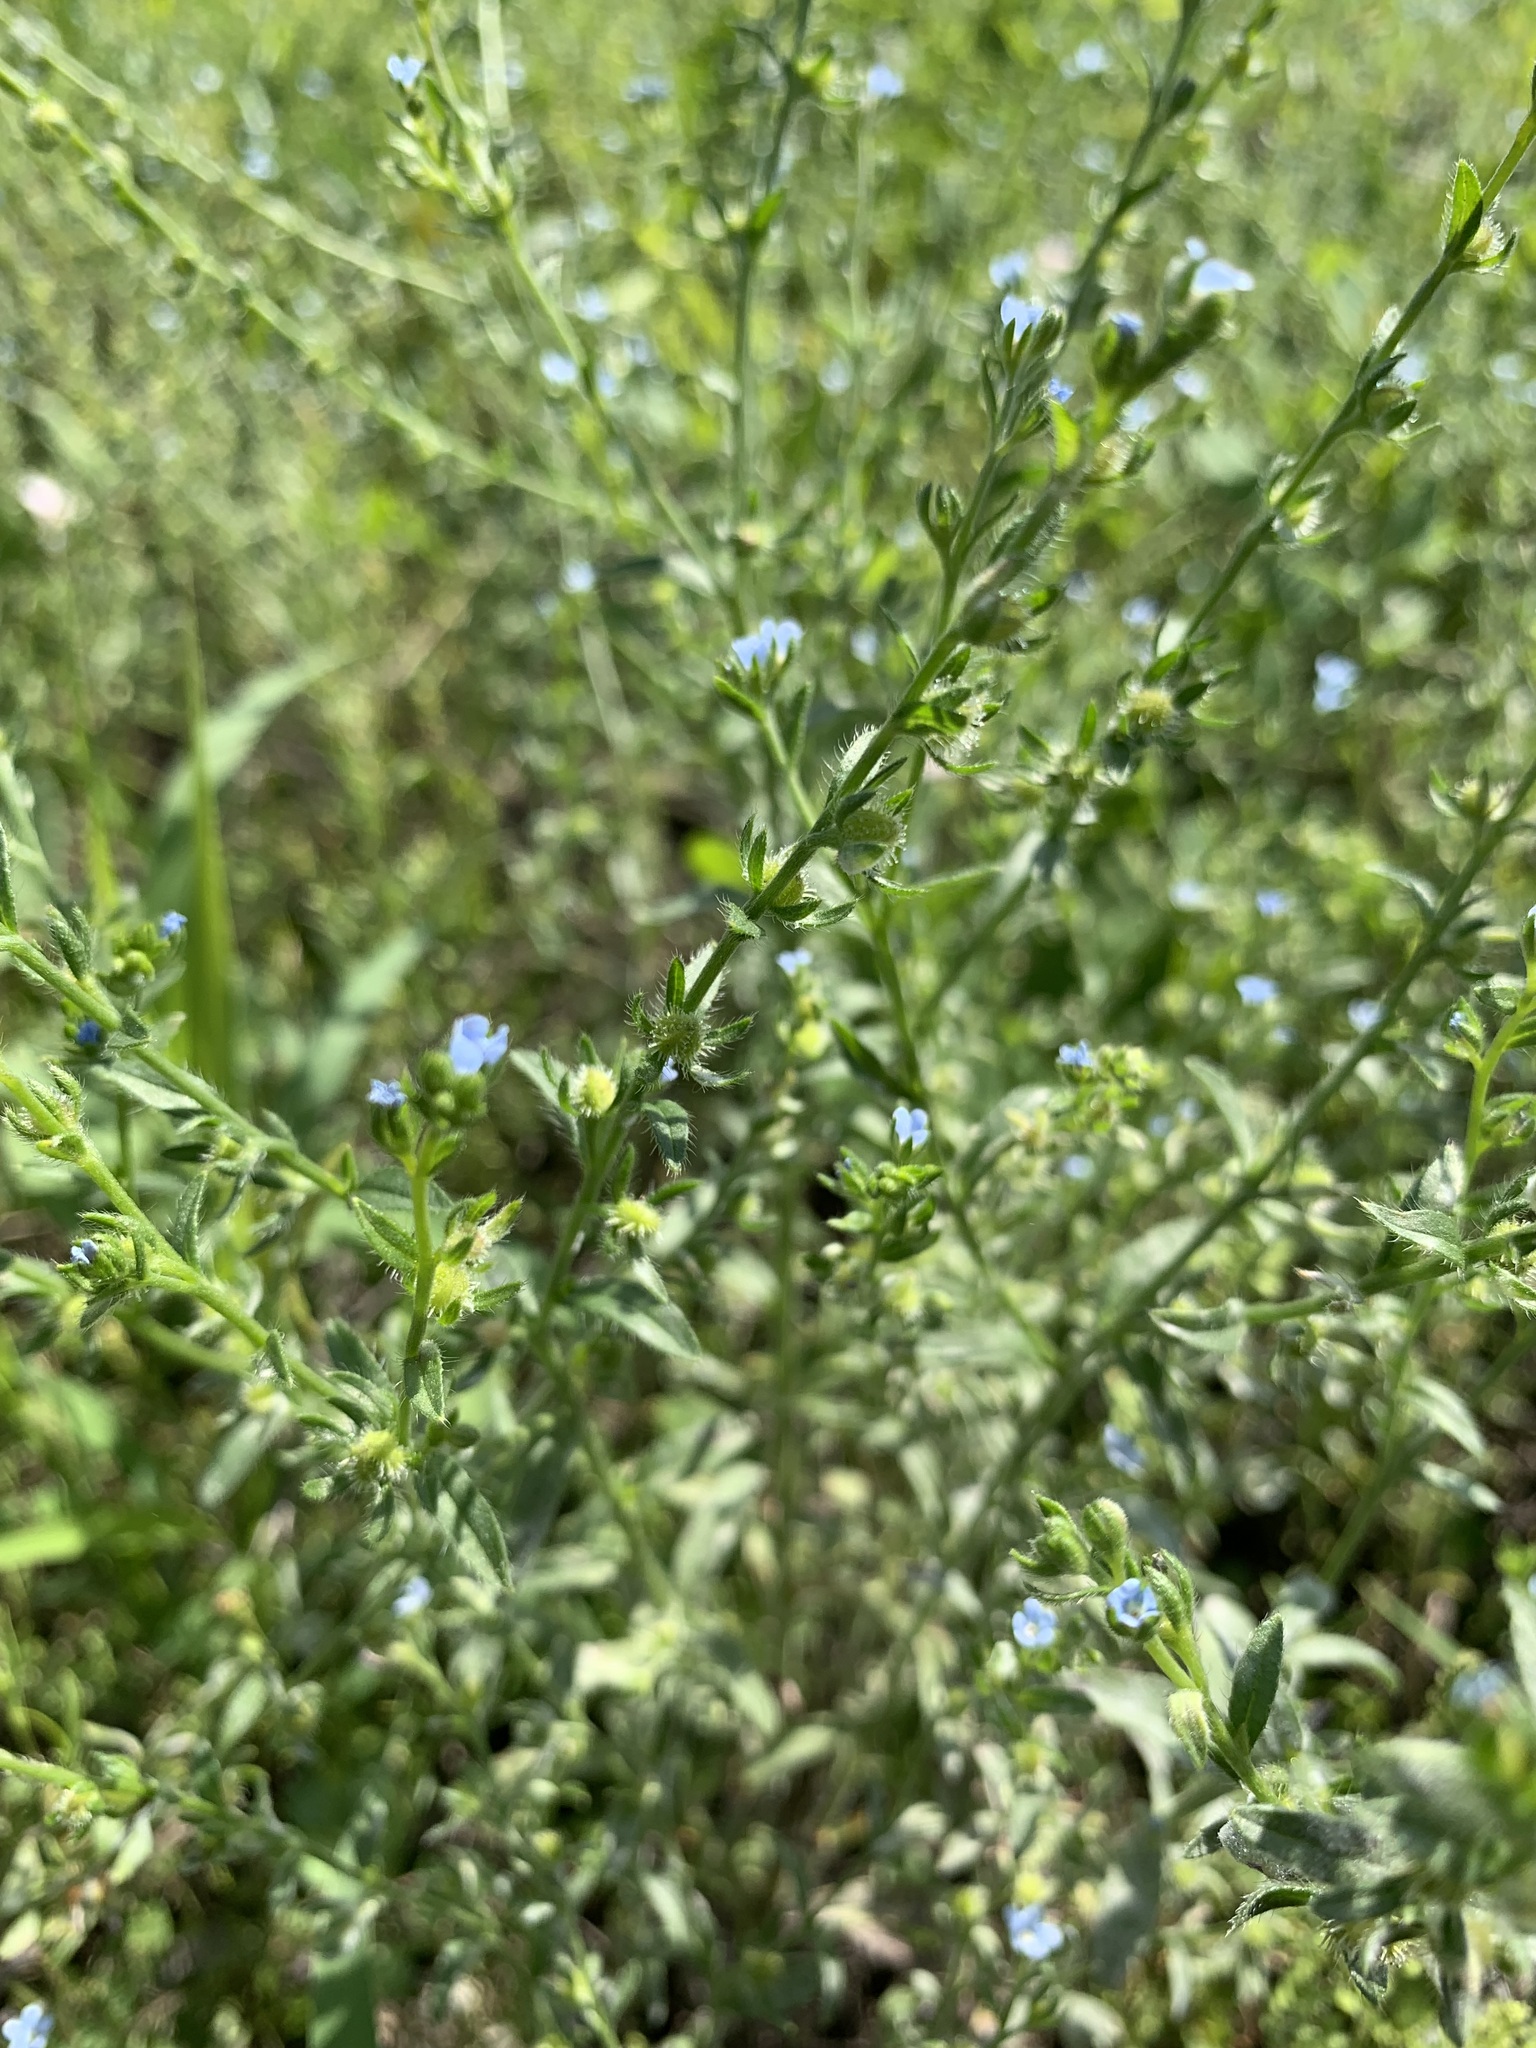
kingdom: Plantae
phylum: Tracheophyta
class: Magnoliopsida
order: Boraginales
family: Boraginaceae
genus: Lappula
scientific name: Lappula squarrosa
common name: European stickseed
